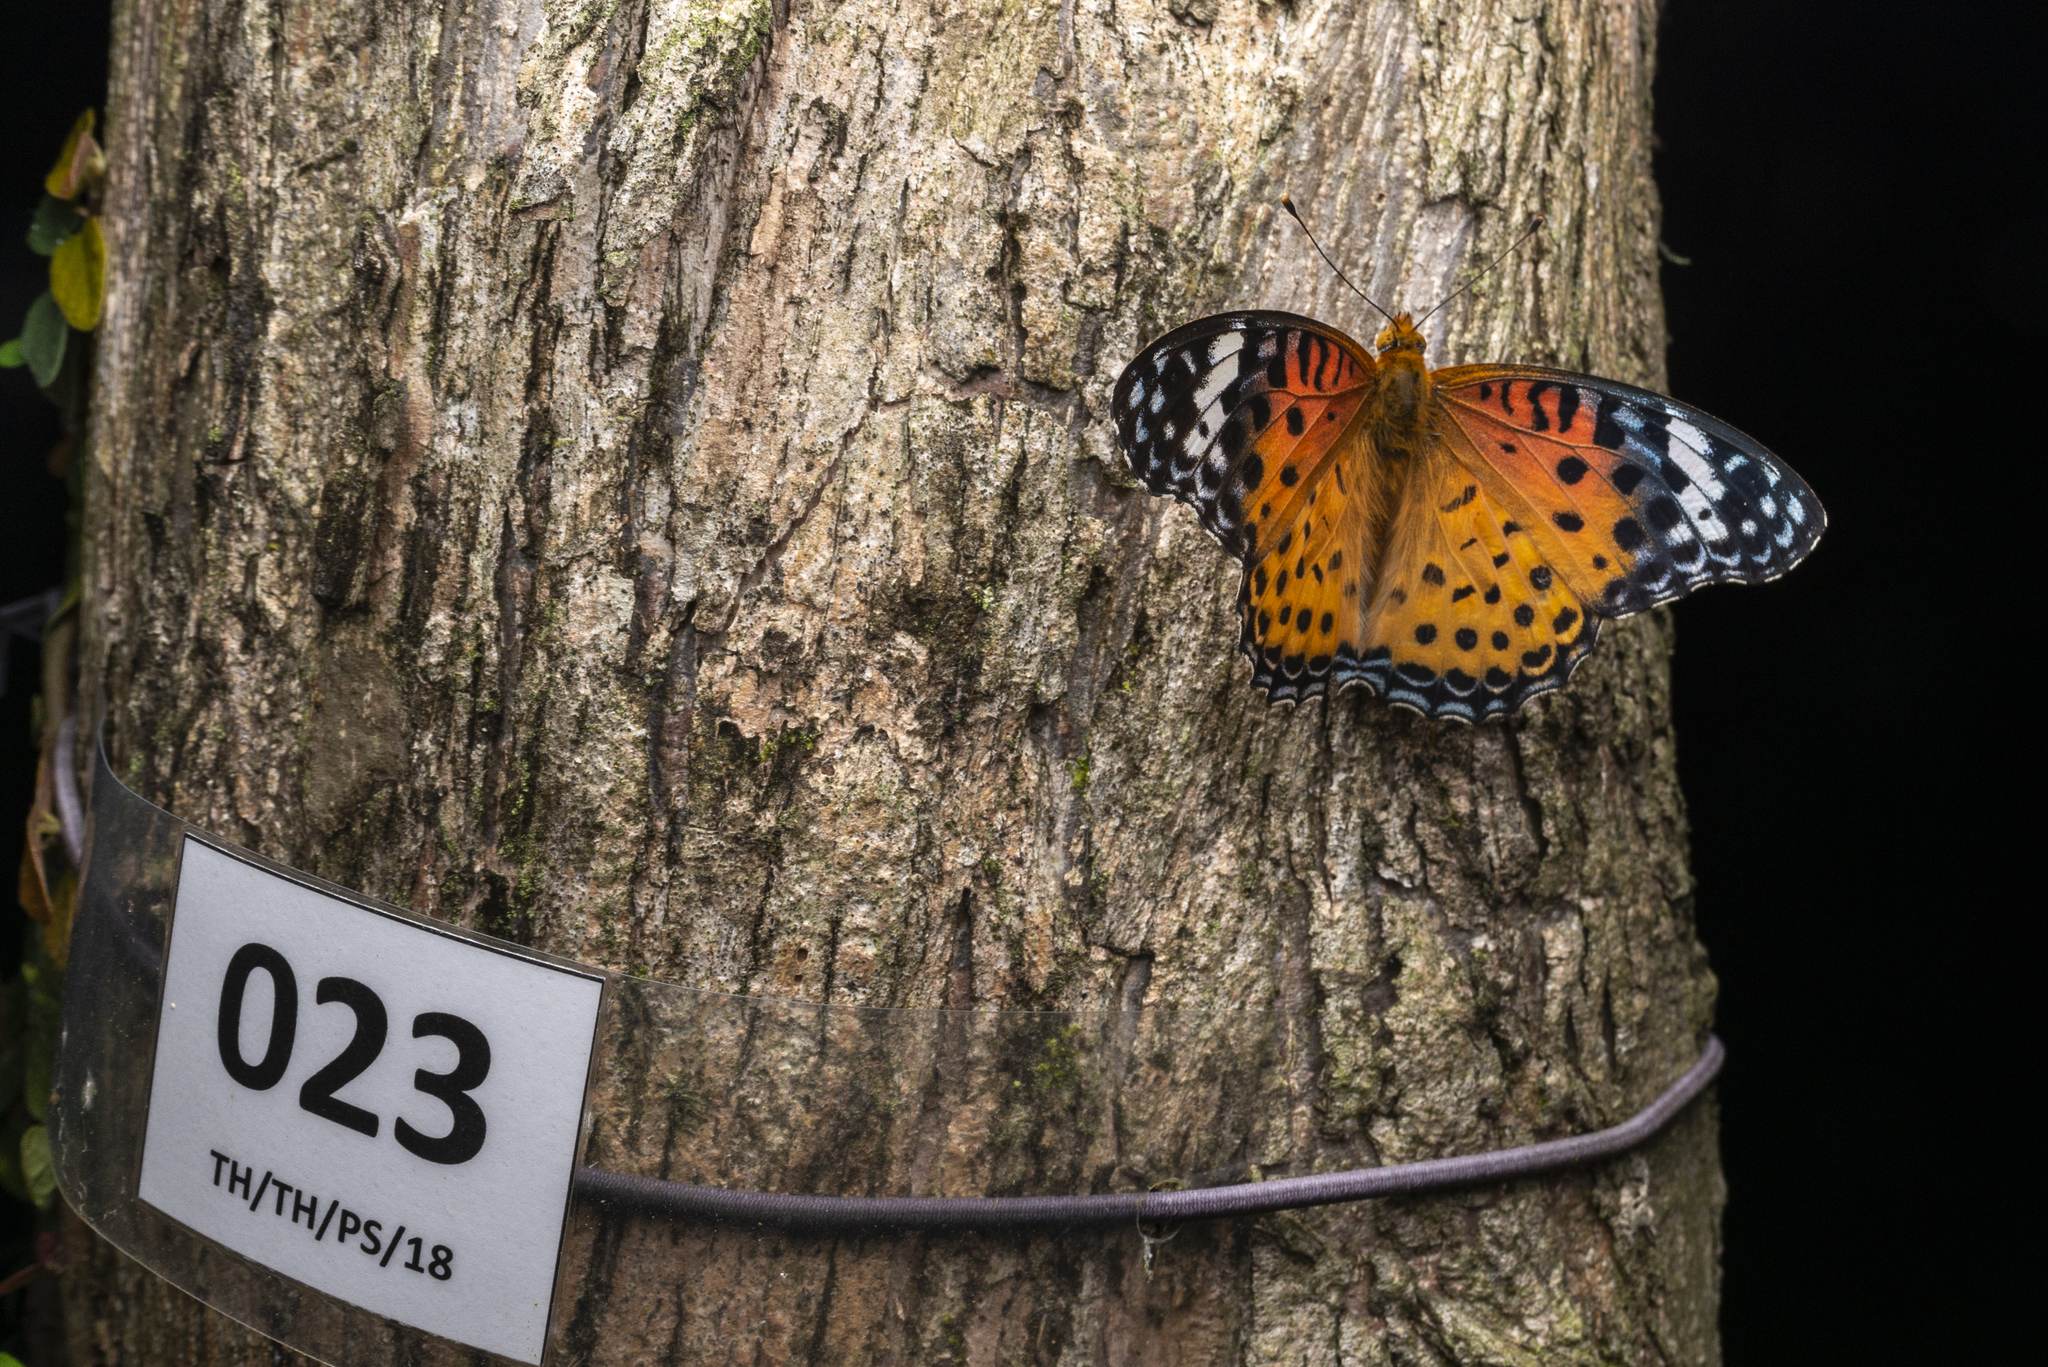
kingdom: Animalia
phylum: Arthropoda
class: Insecta
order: Lepidoptera
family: Nymphalidae
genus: Argynnis
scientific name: Argynnis hyperbius
